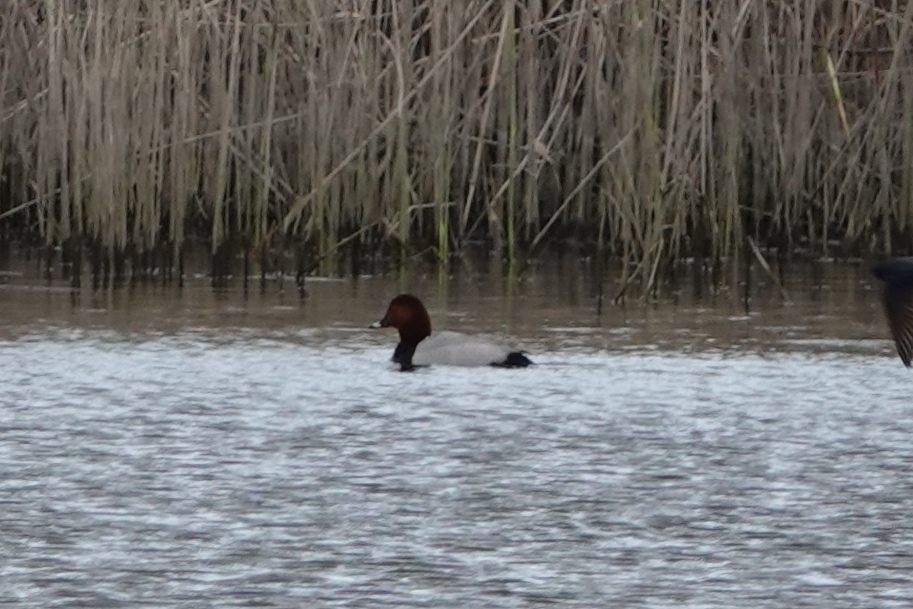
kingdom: Animalia
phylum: Chordata
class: Aves
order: Anseriformes
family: Anatidae
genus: Aythya
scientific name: Aythya ferina
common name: Common pochard
